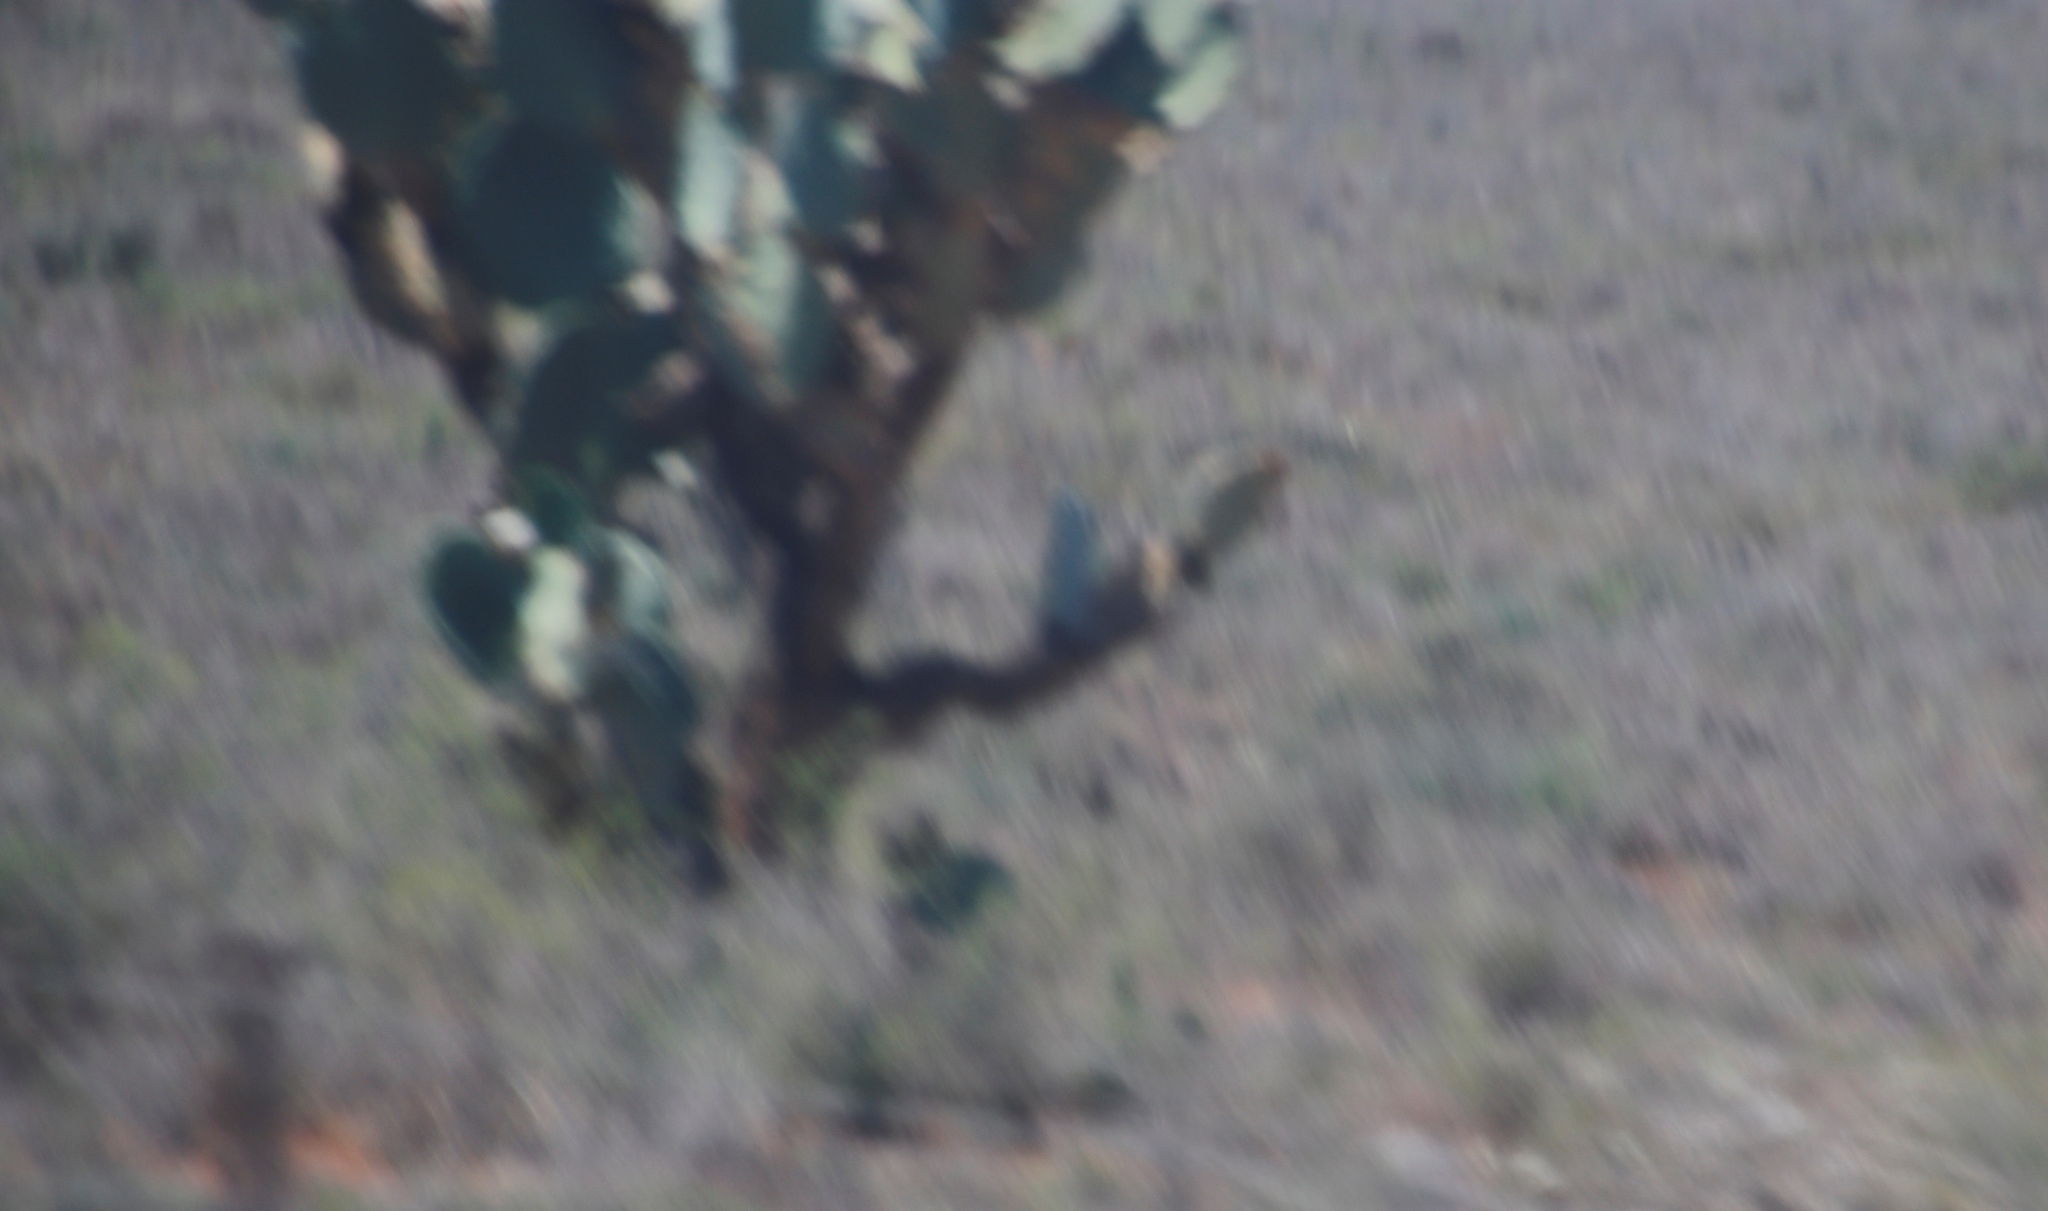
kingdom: Plantae
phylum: Tracheophyta
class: Magnoliopsida
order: Caryophyllales
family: Cactaceae
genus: Opuntia
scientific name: Opuntia ficus-indica
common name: Barbary fig
